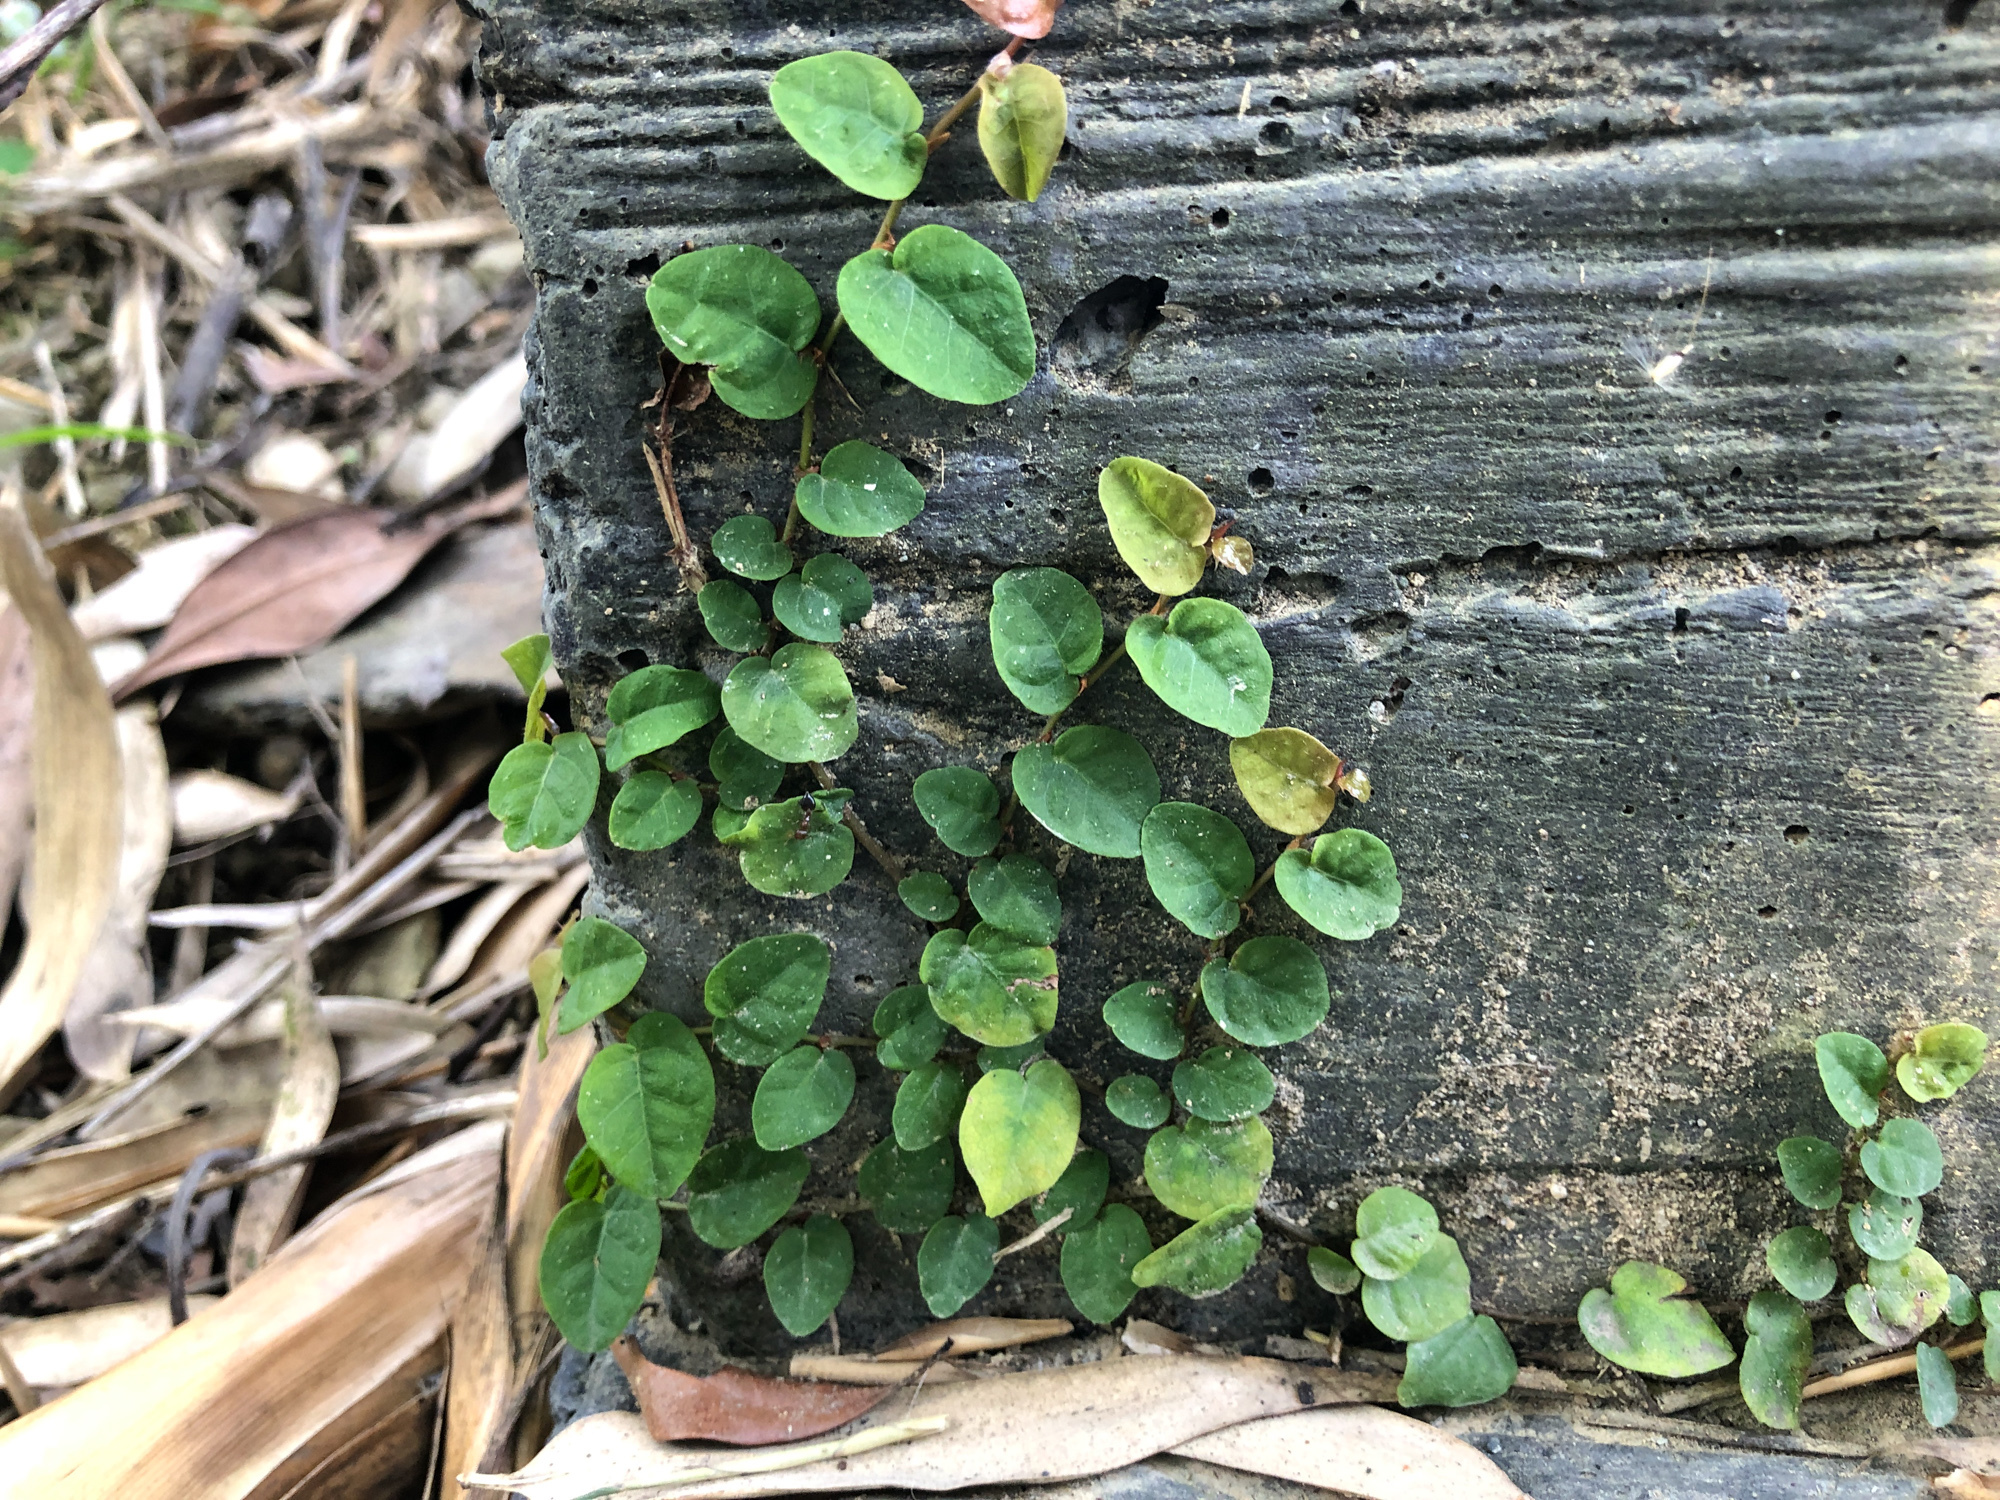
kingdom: Plantae
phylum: Tracheophyta
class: Magnoliopsida
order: Rosales
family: Moraceae
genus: Ficus
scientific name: Ficus pumila
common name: Climbingfig
